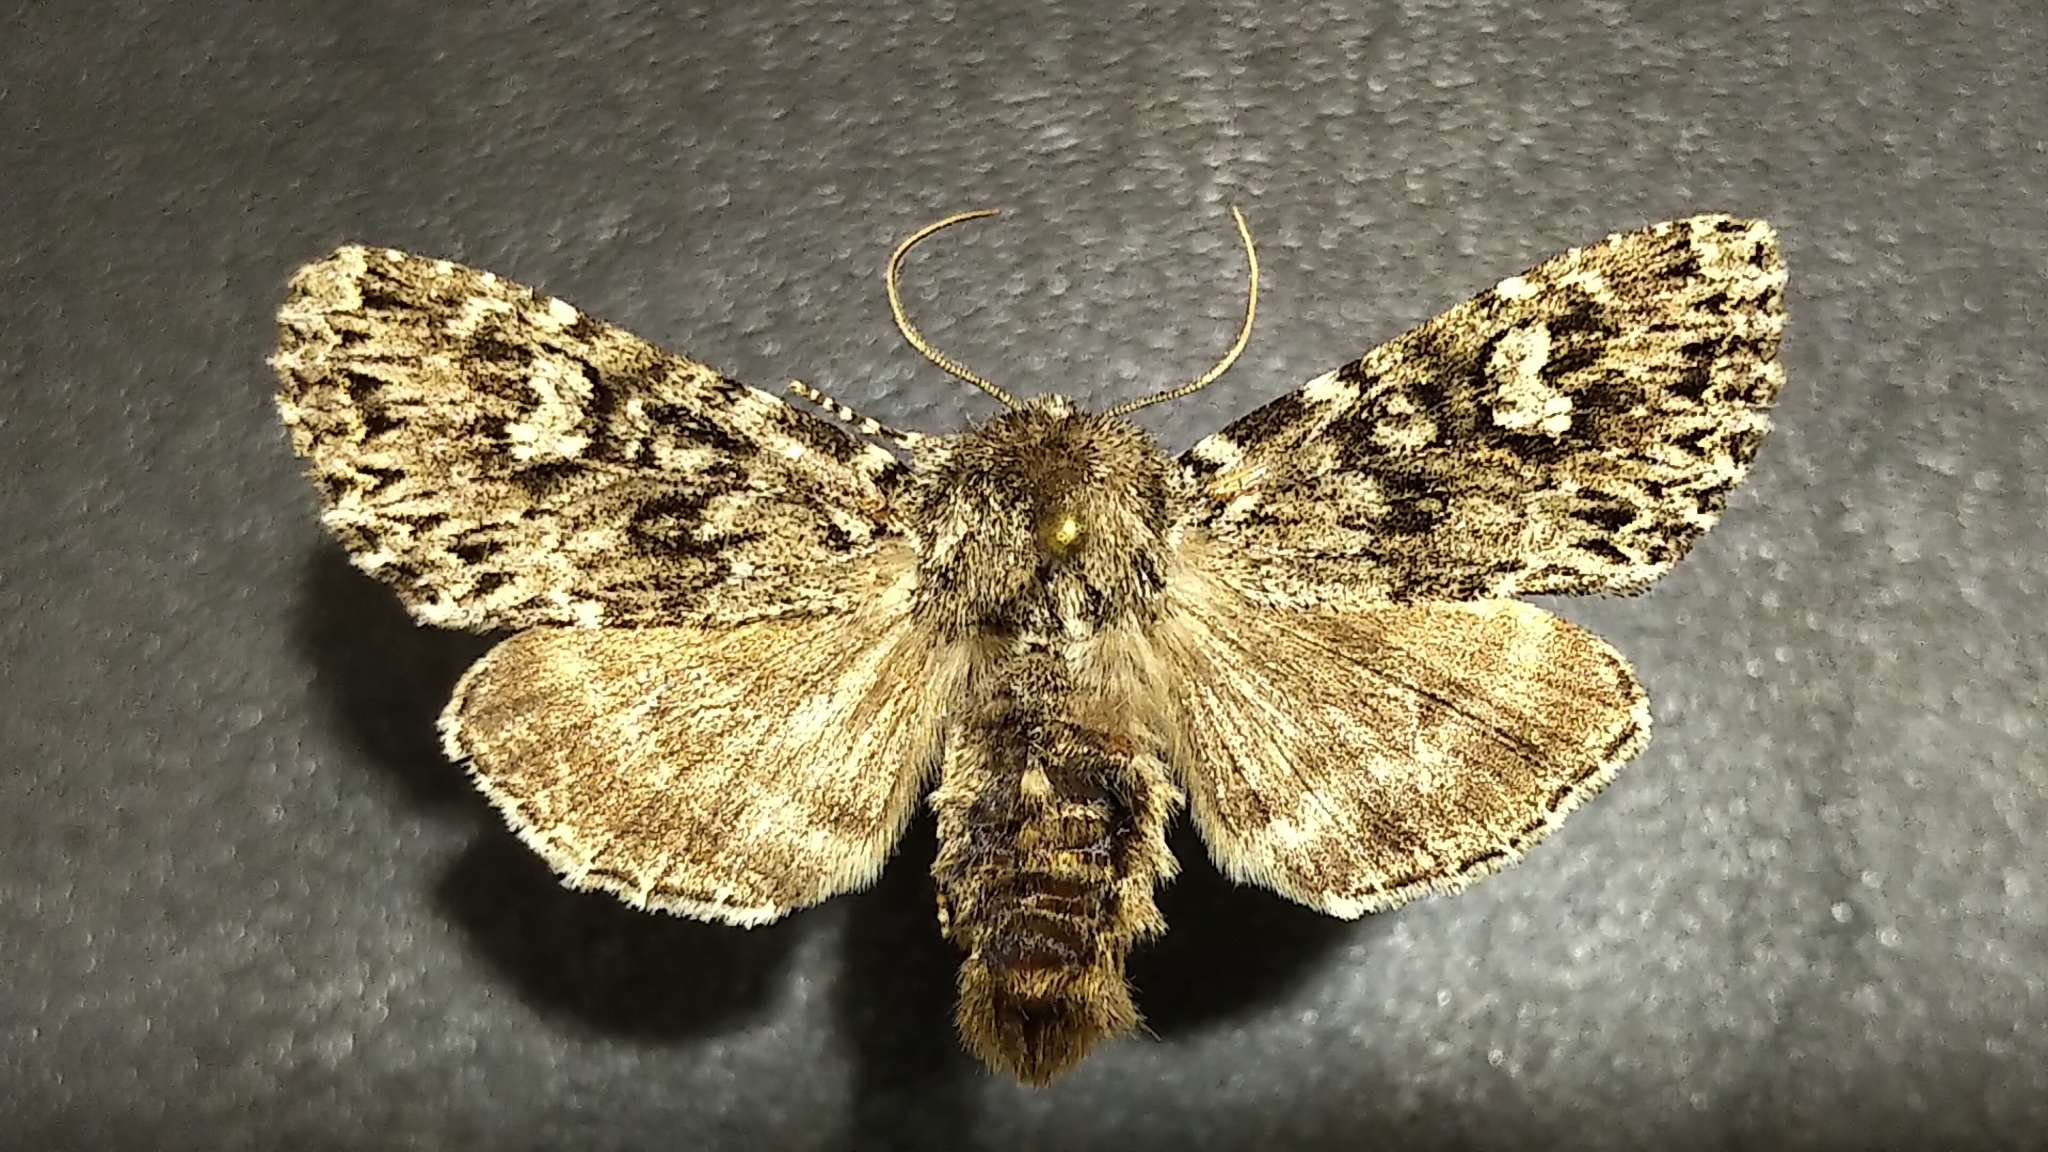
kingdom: Animalia
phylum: Arthropoda
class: Insecta
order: Lepidoptera
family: Noctuidae
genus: Polia
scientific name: Polia propodea
